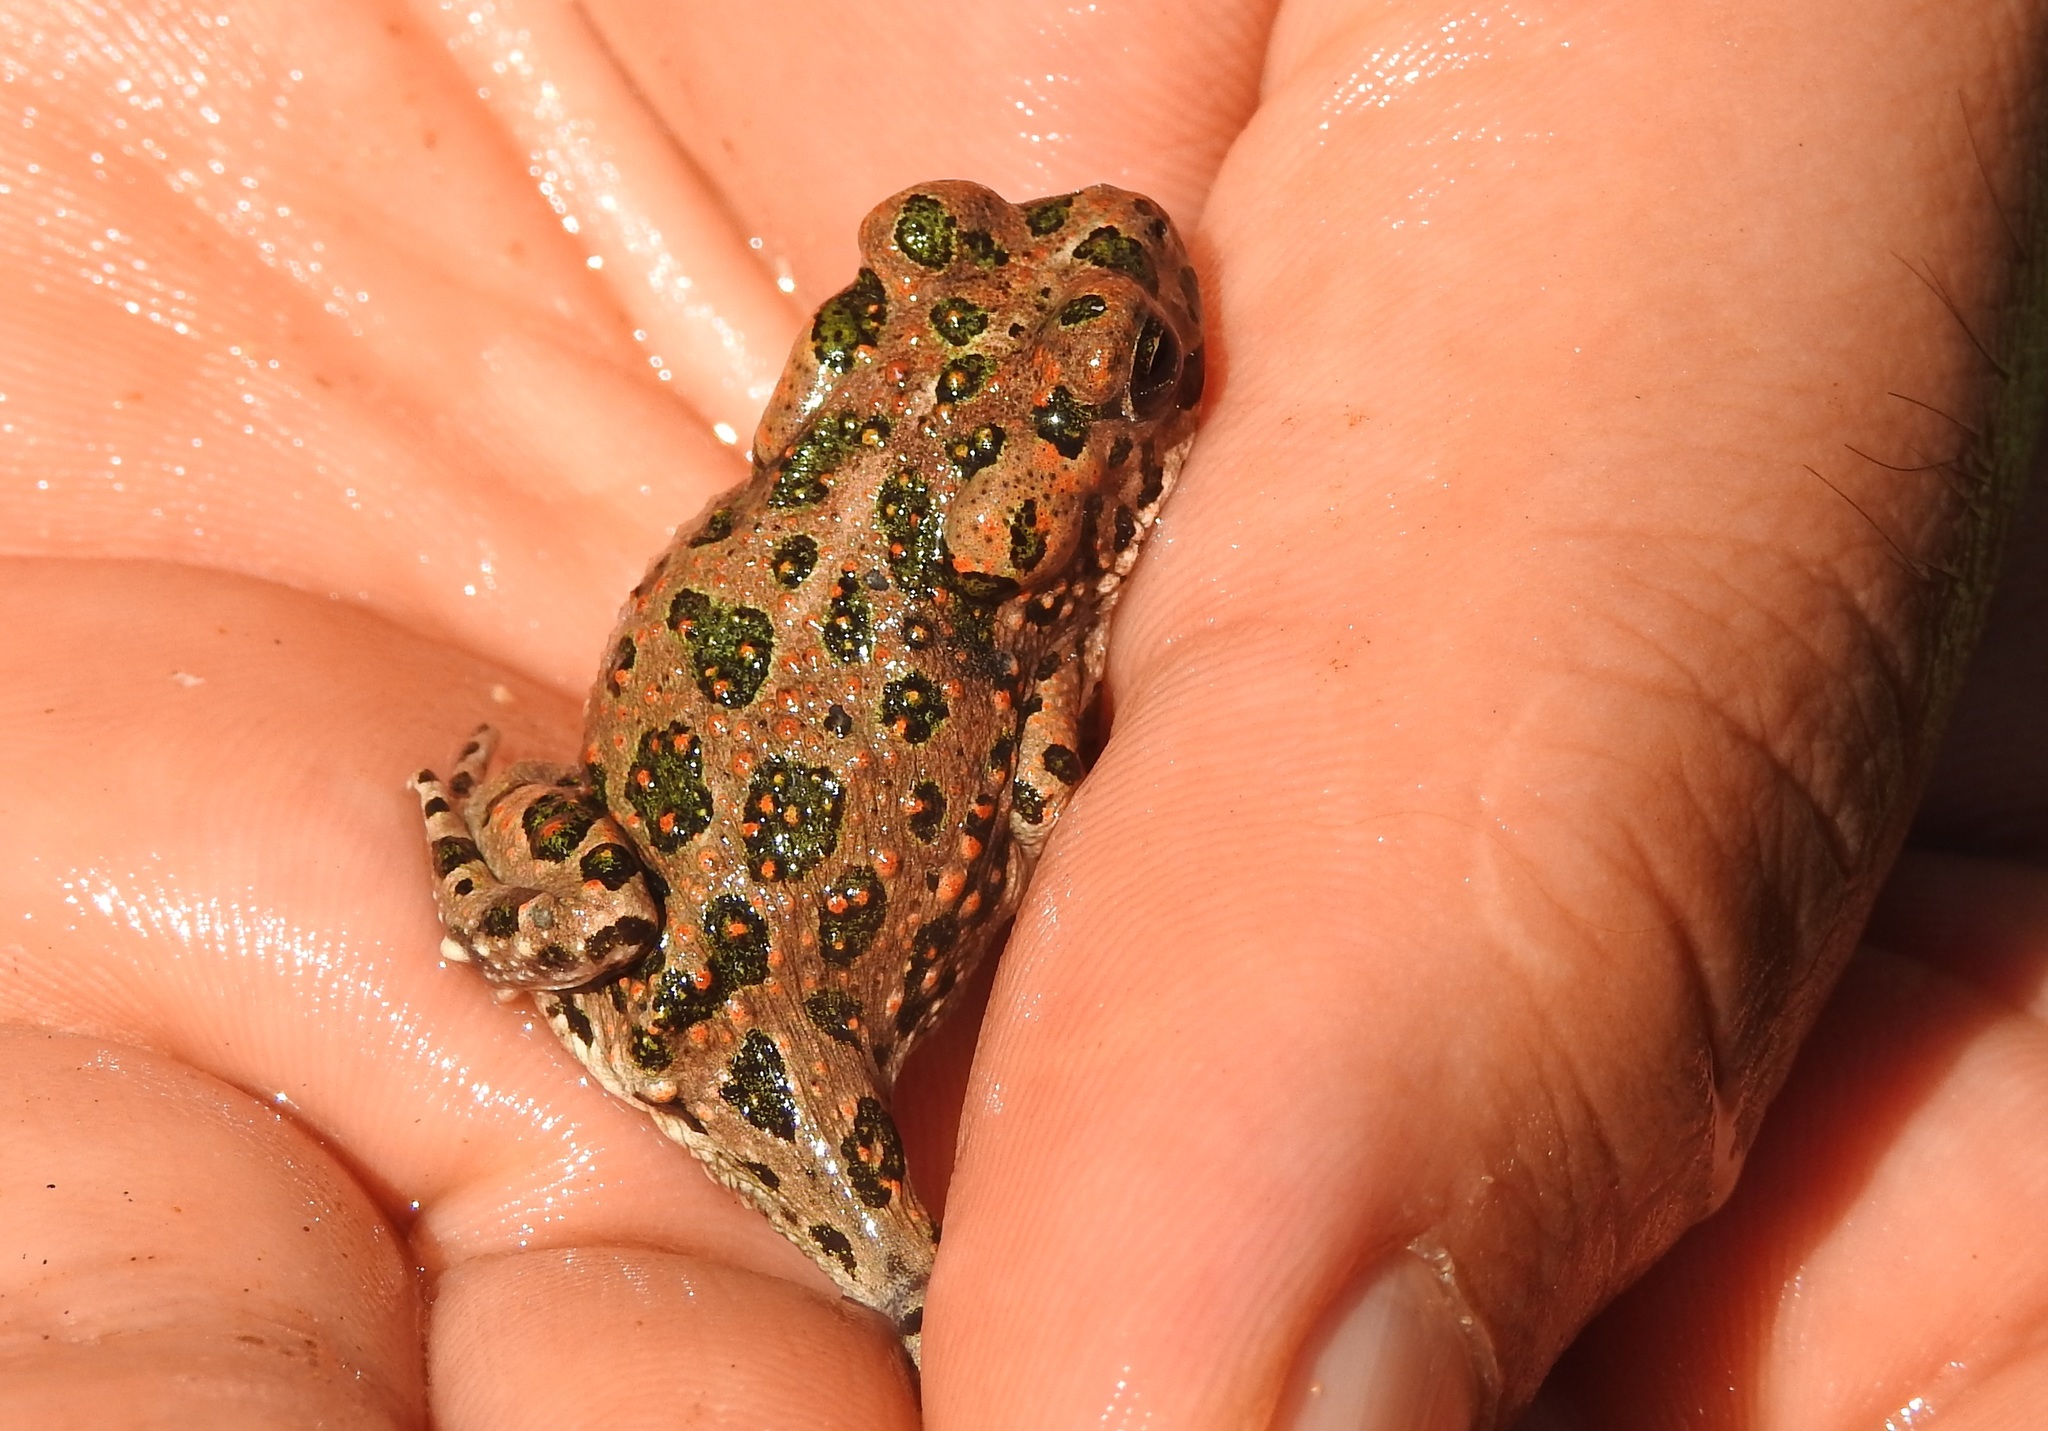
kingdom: Animalia
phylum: Chordata
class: Amphibia
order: Anura
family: Bufonidae
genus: Bufotes
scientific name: Bufotes boulengeri
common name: African green toad
